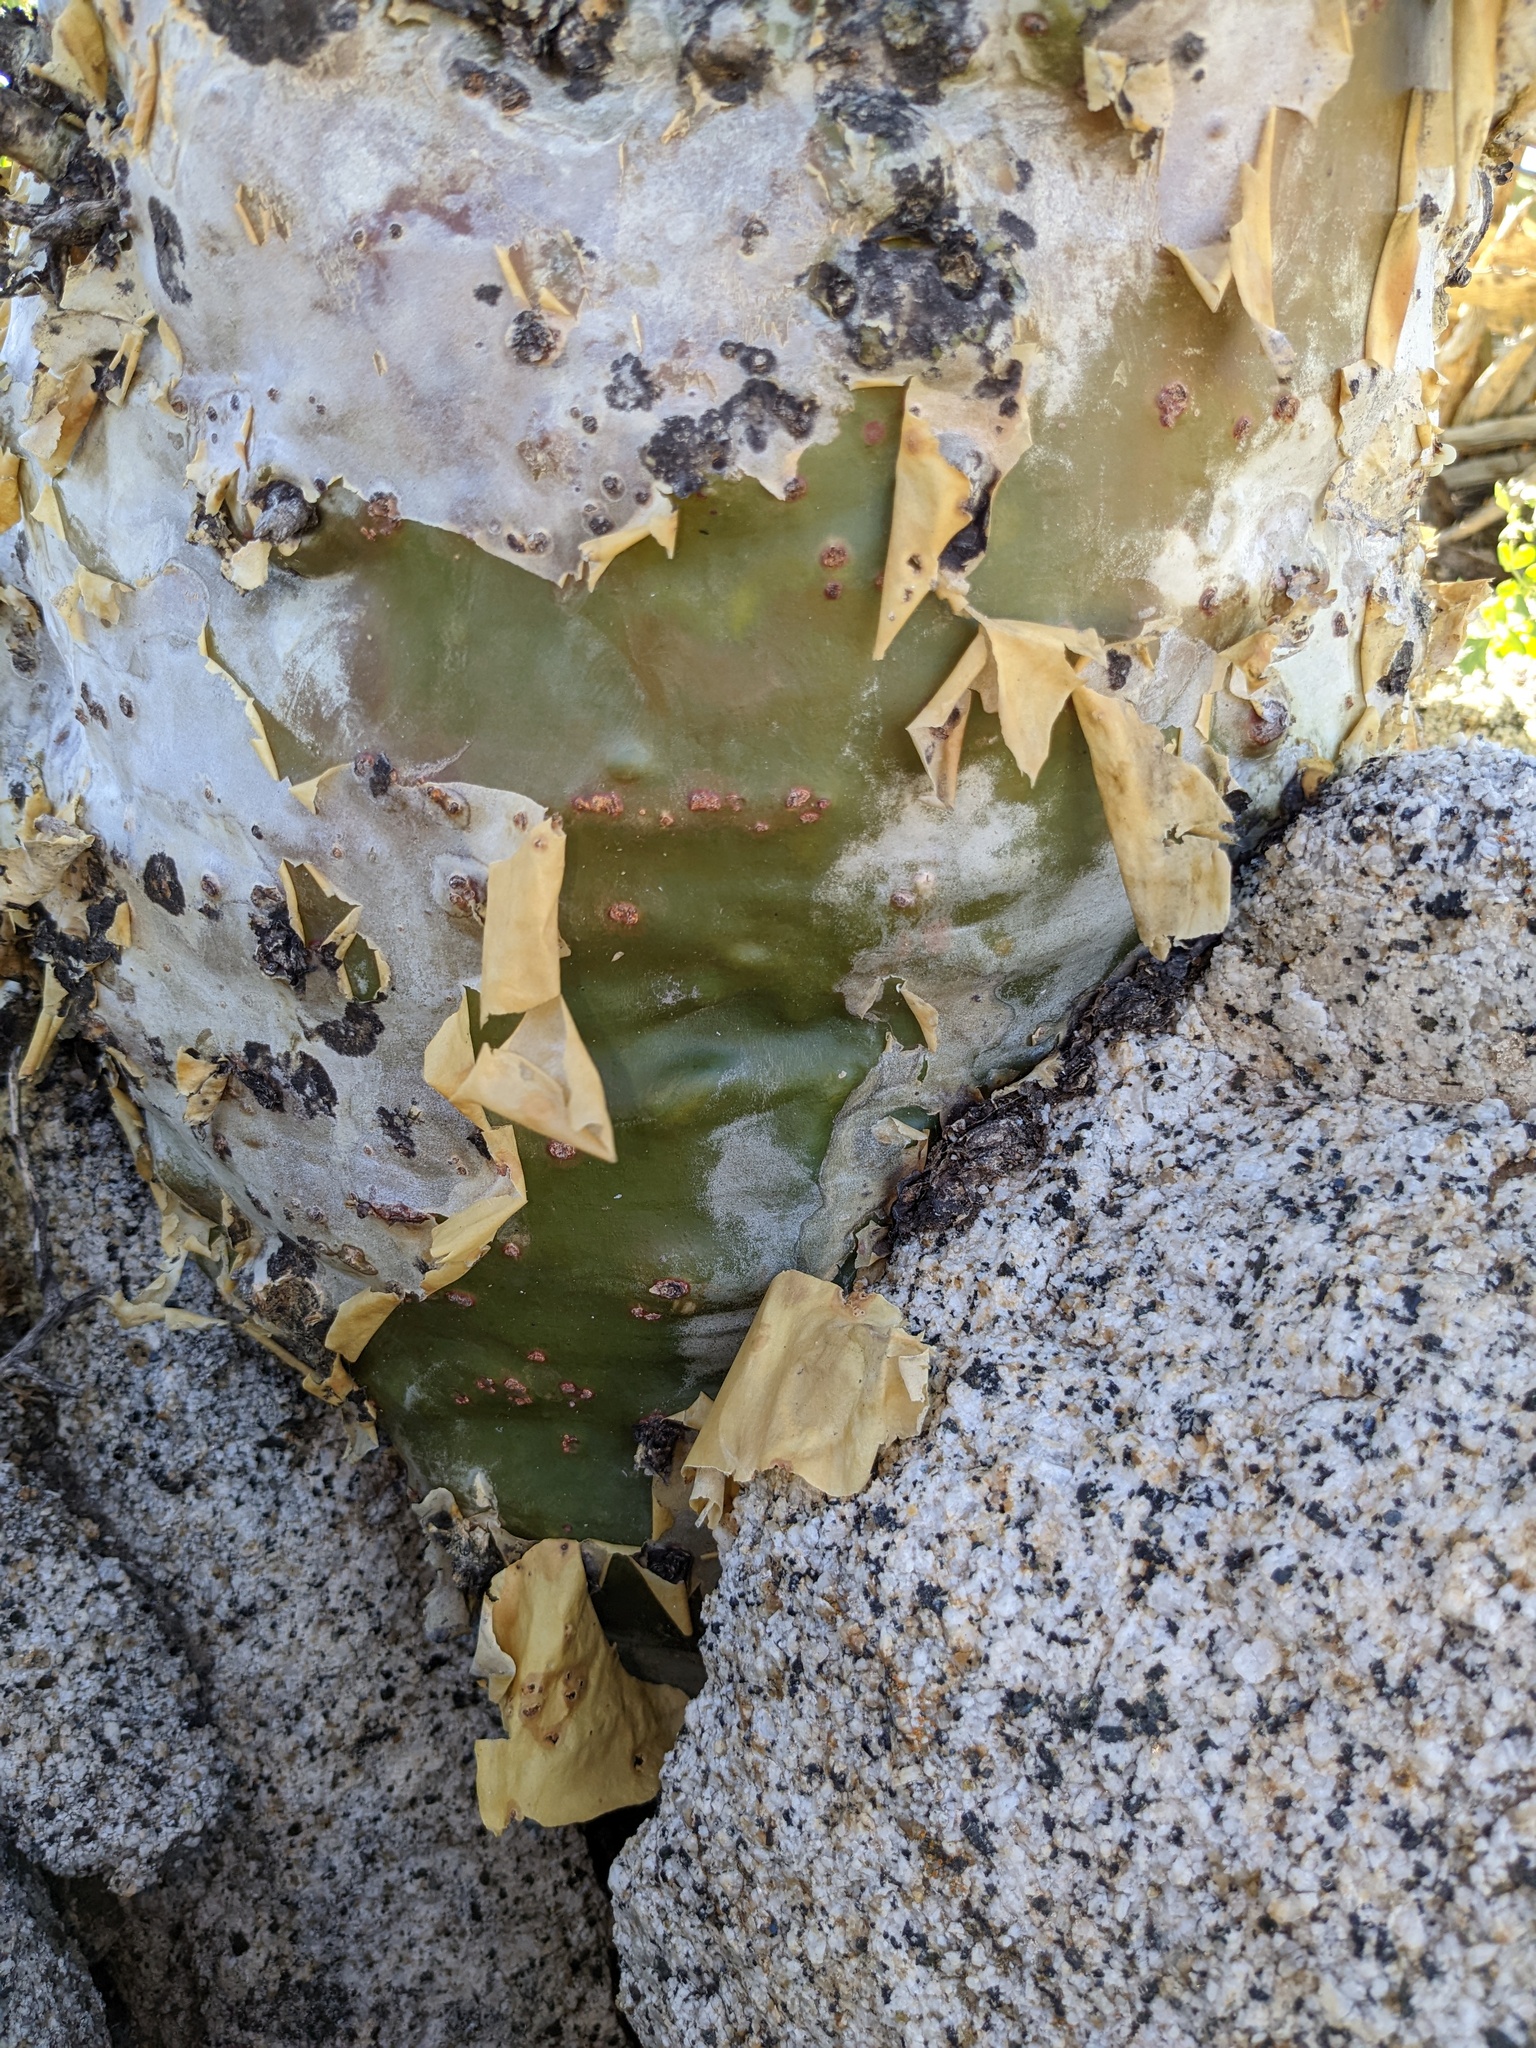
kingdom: Plantae
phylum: Tracheophyta
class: Magnoliopsida
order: Sapindales
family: Anacardiaceae
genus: Pachycormus
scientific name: Pachycormus discolor
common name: Succulent elephant trees
